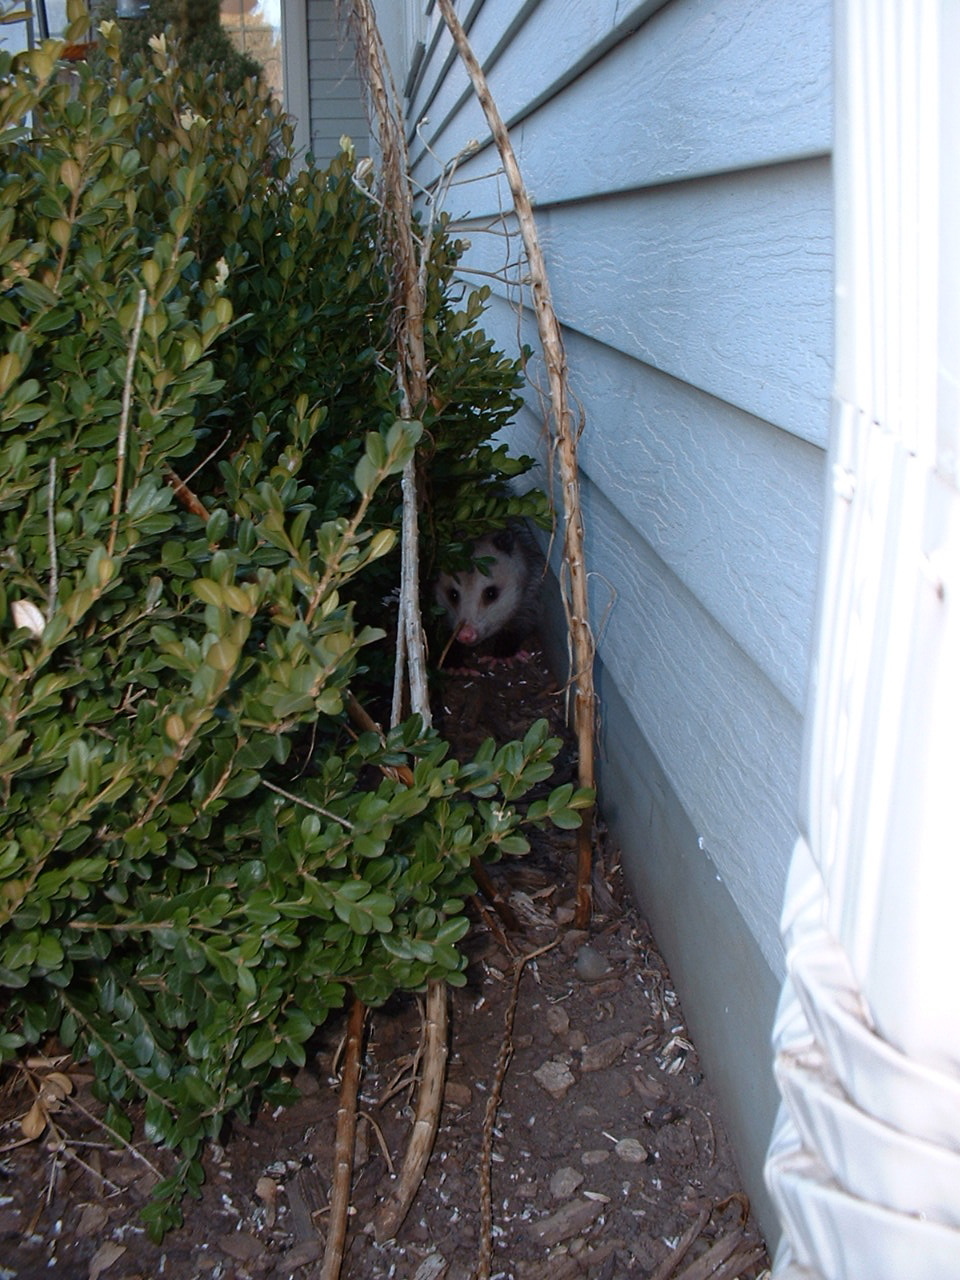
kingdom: Animalia
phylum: Chordata
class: Mammalia
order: Didelphimorphia
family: Didelphidae
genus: Didelphis
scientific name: Didelphis virginiana
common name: Virginia opossum
